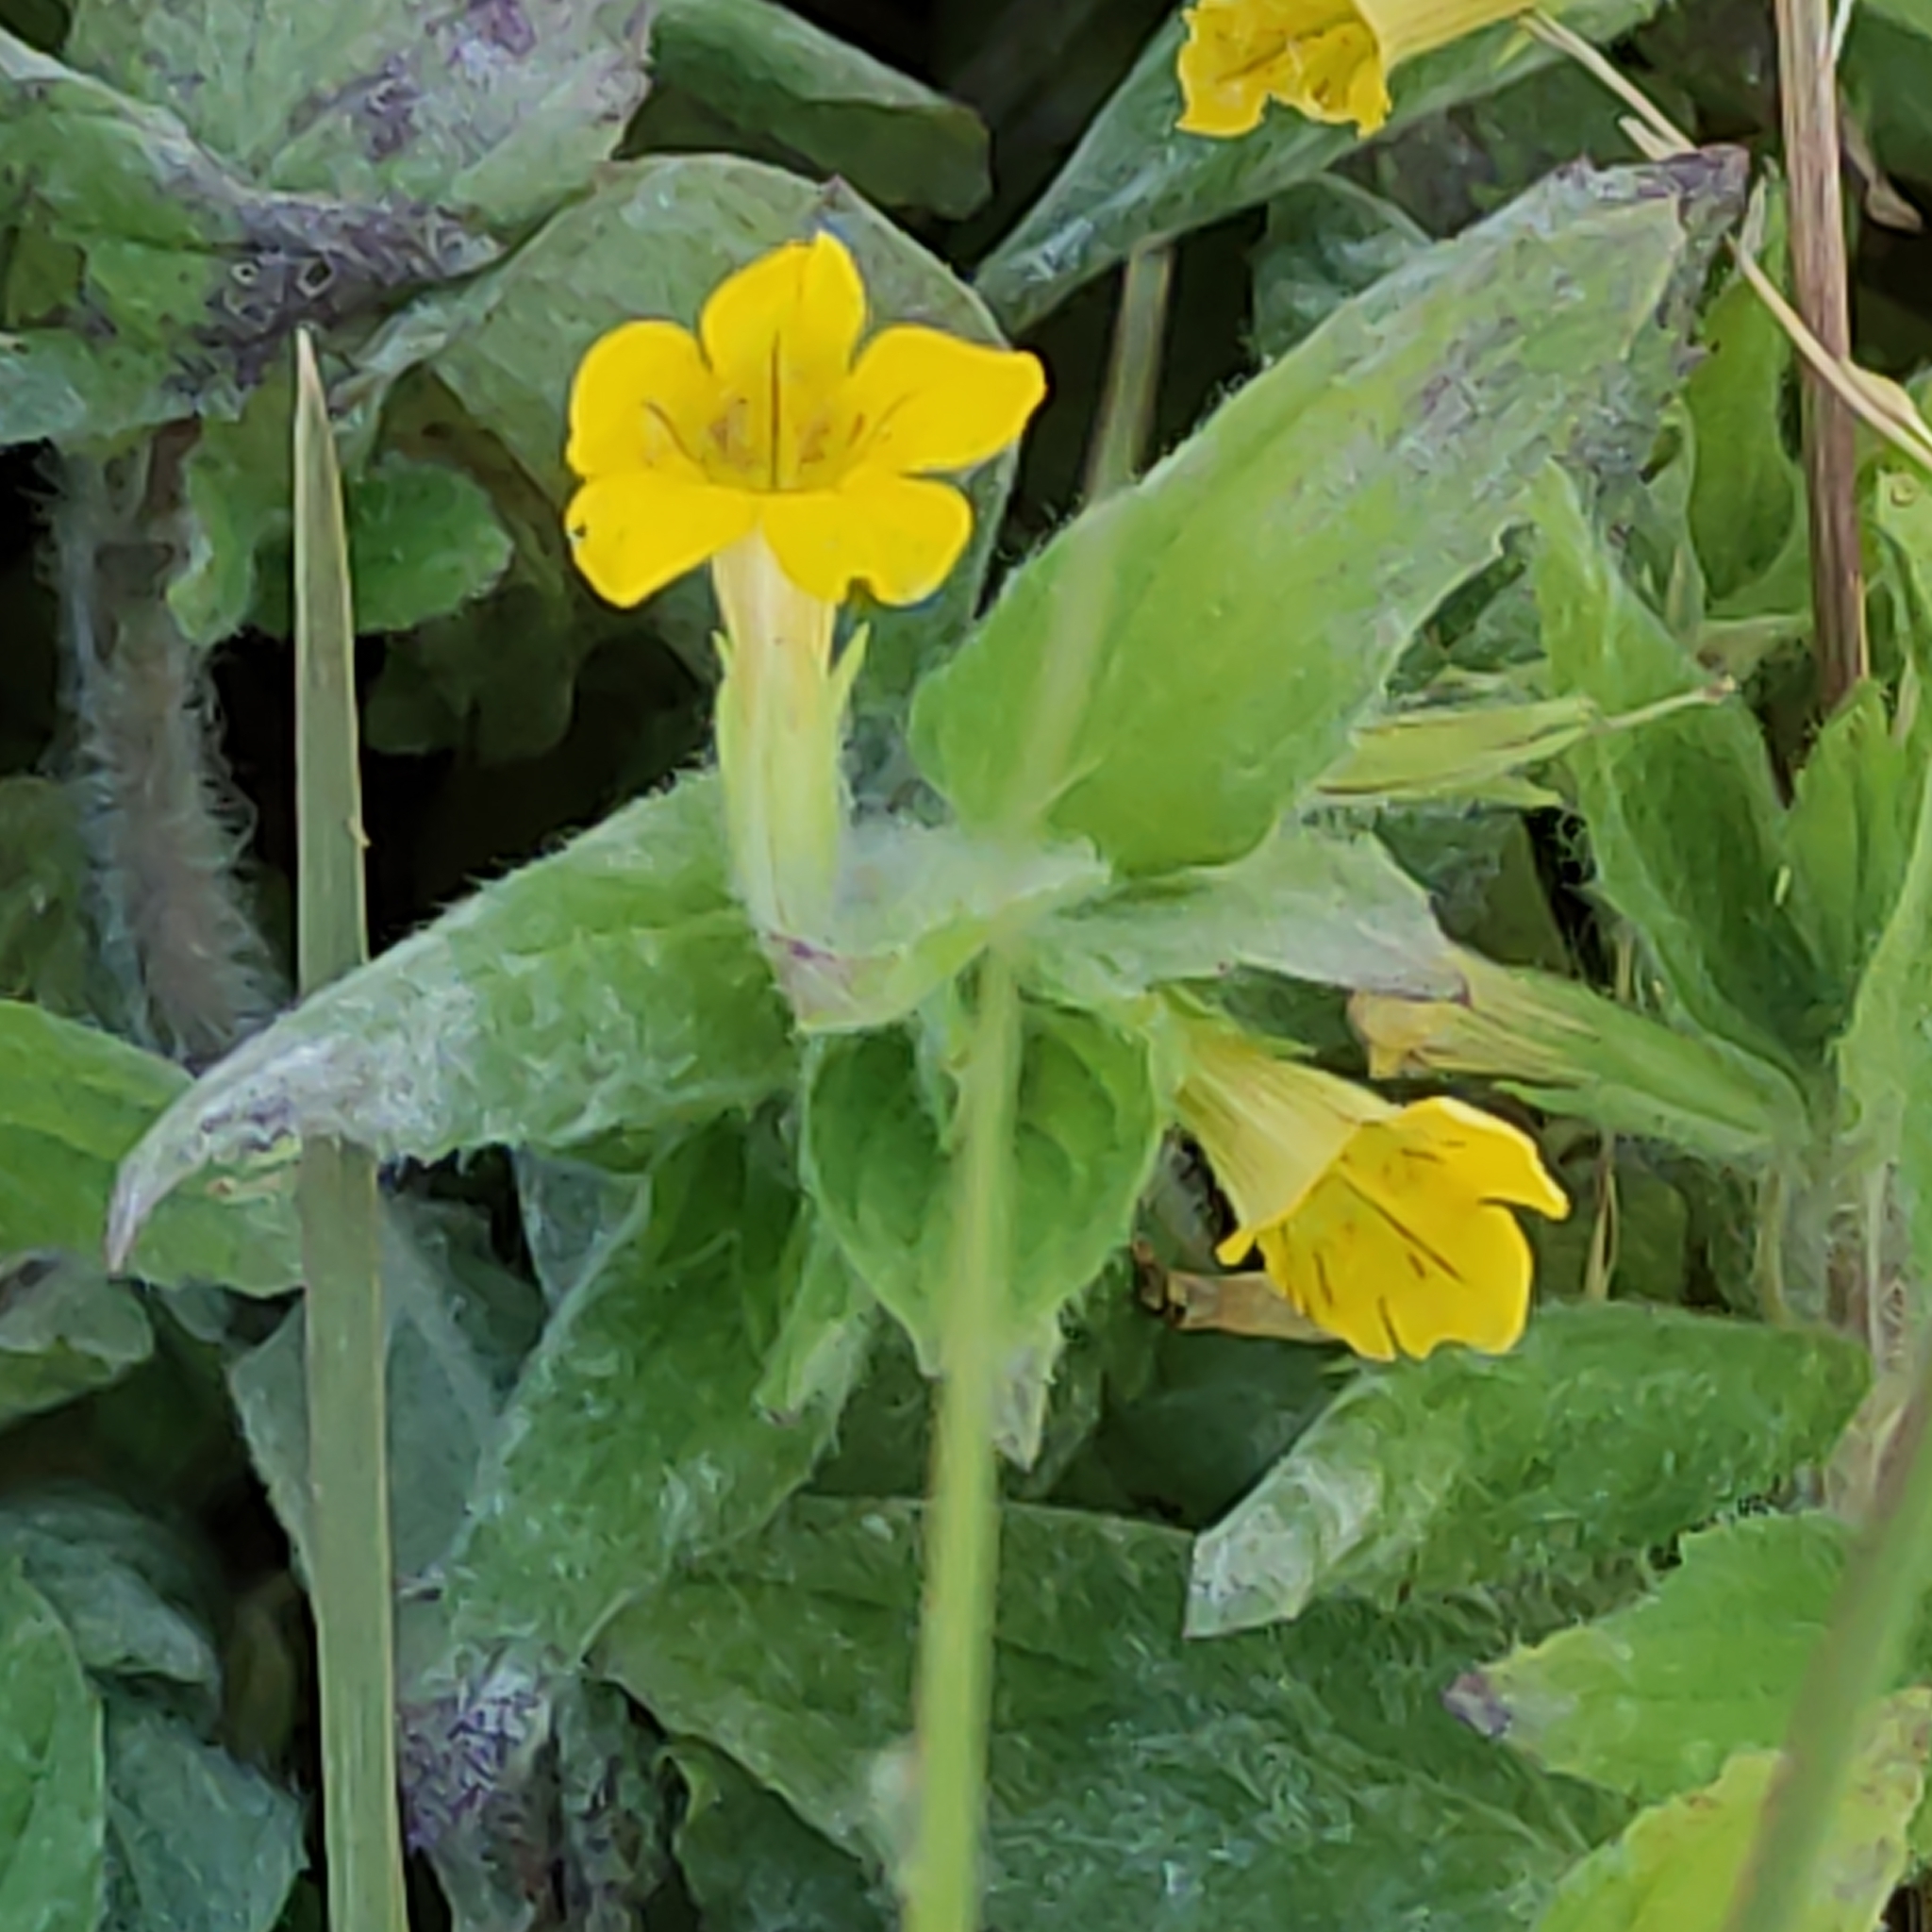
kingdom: Plantae
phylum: Tracheophyta
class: Magnoliopsida
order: Lamiales
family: Phrymaceae
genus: Erythranthe
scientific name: Erythranthe moschata
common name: Muskflower
